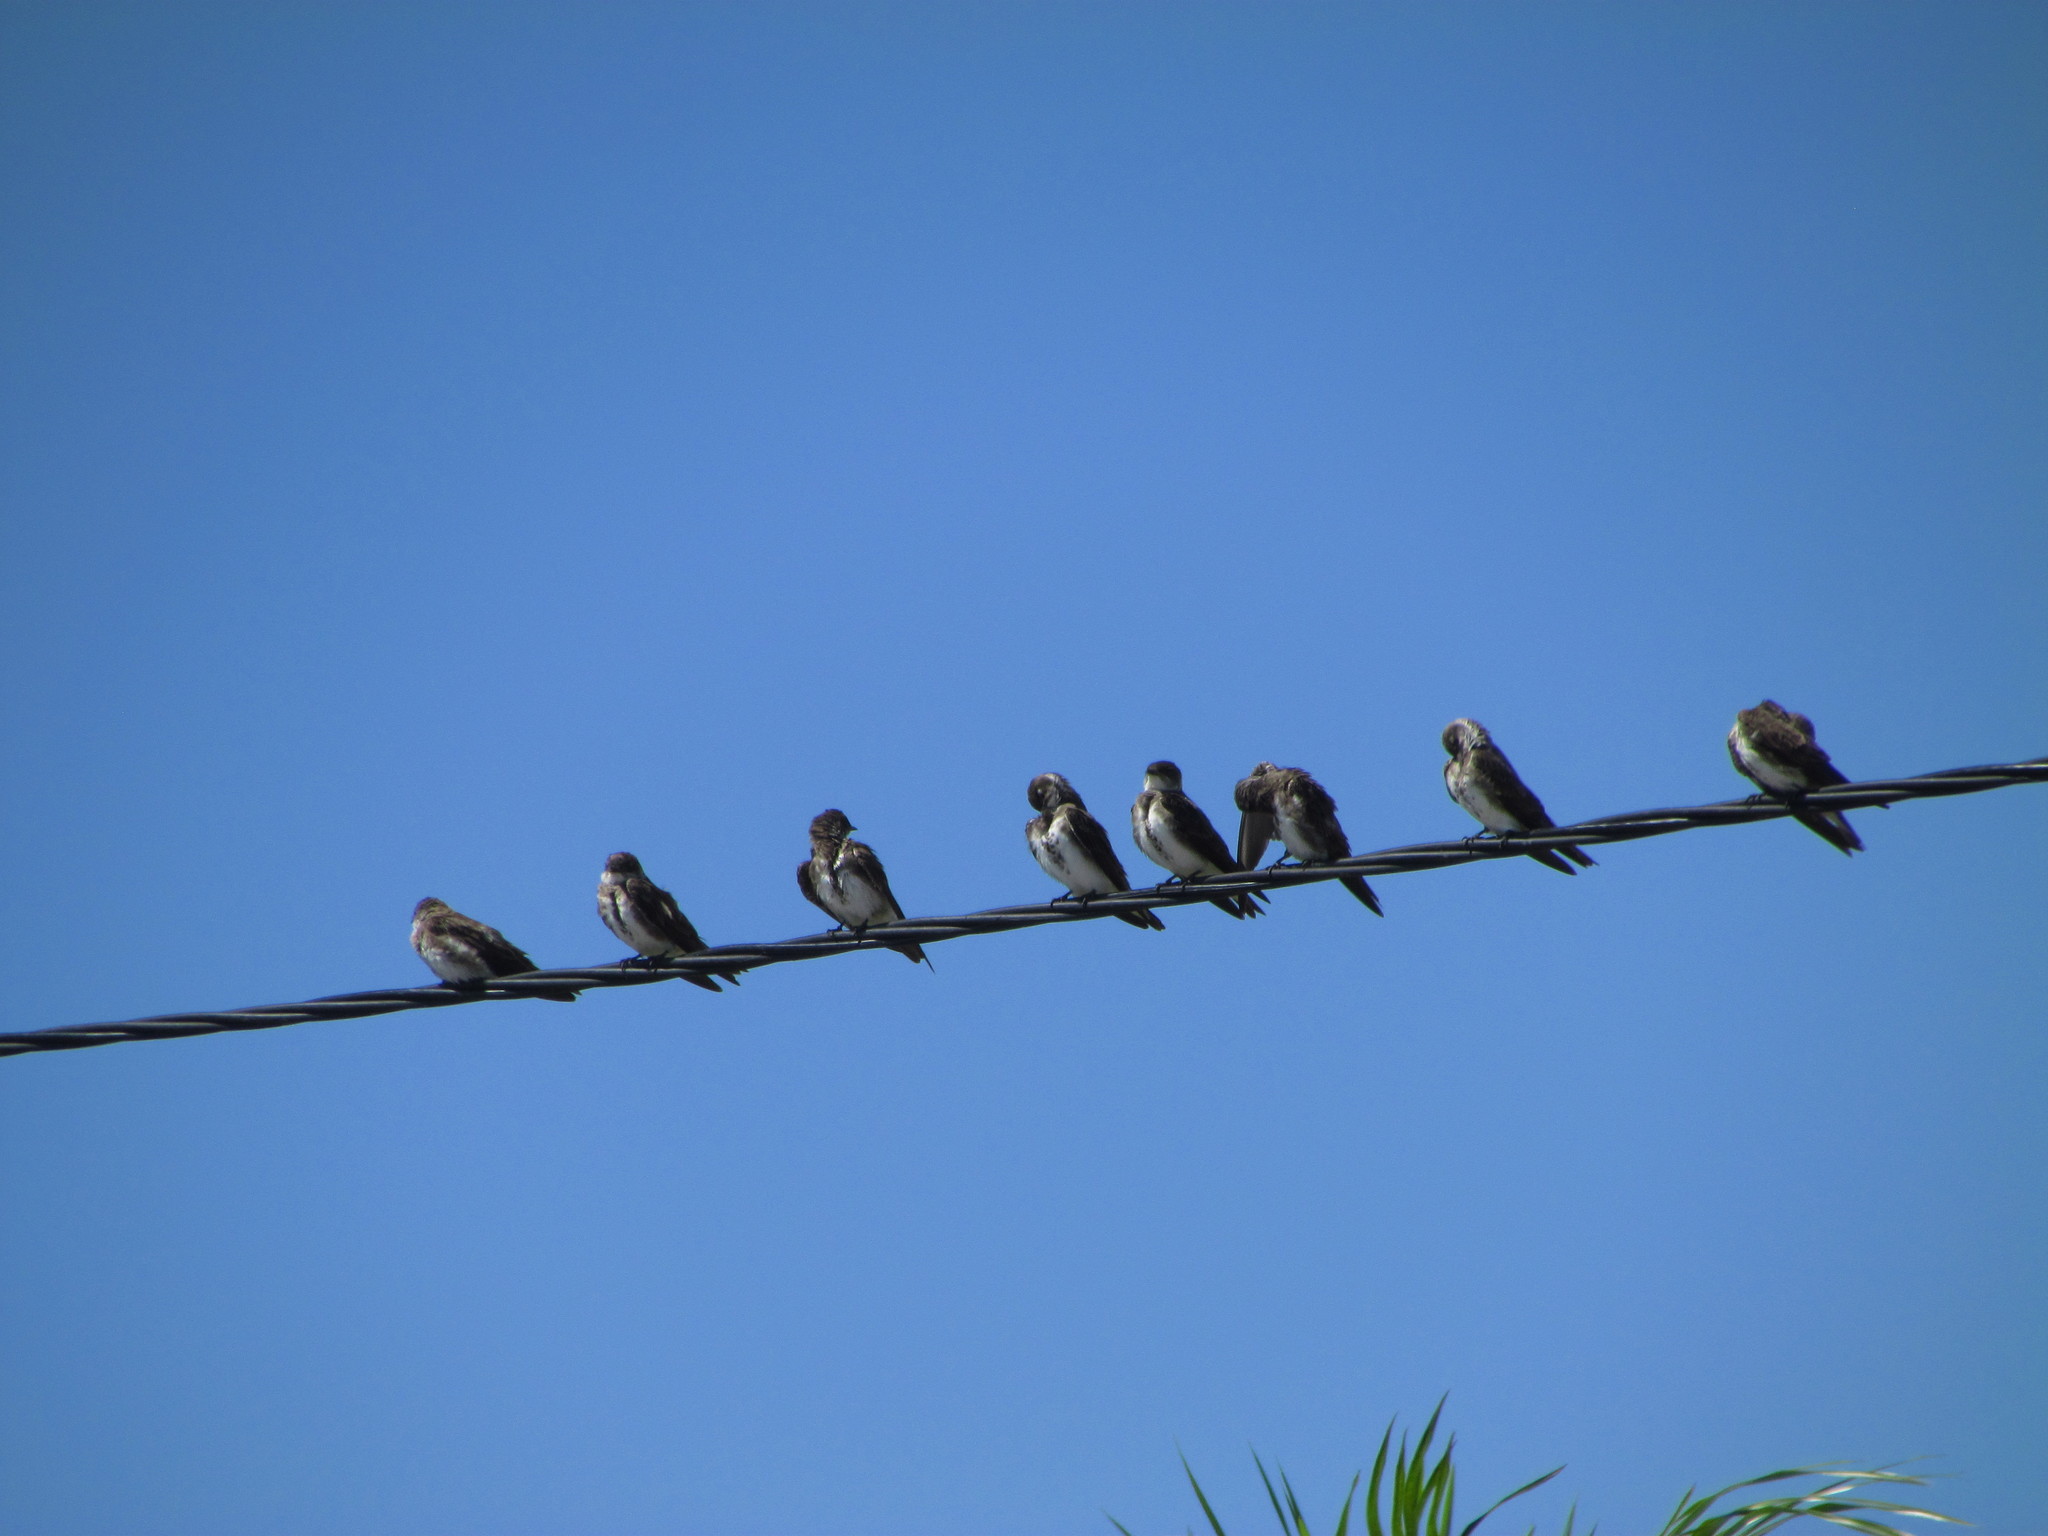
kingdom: Animalia
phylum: Chordata
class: Aves
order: Passeriformes
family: Hirundinidae
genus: Progne
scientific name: Progne tapera
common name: Brown-chested martin
